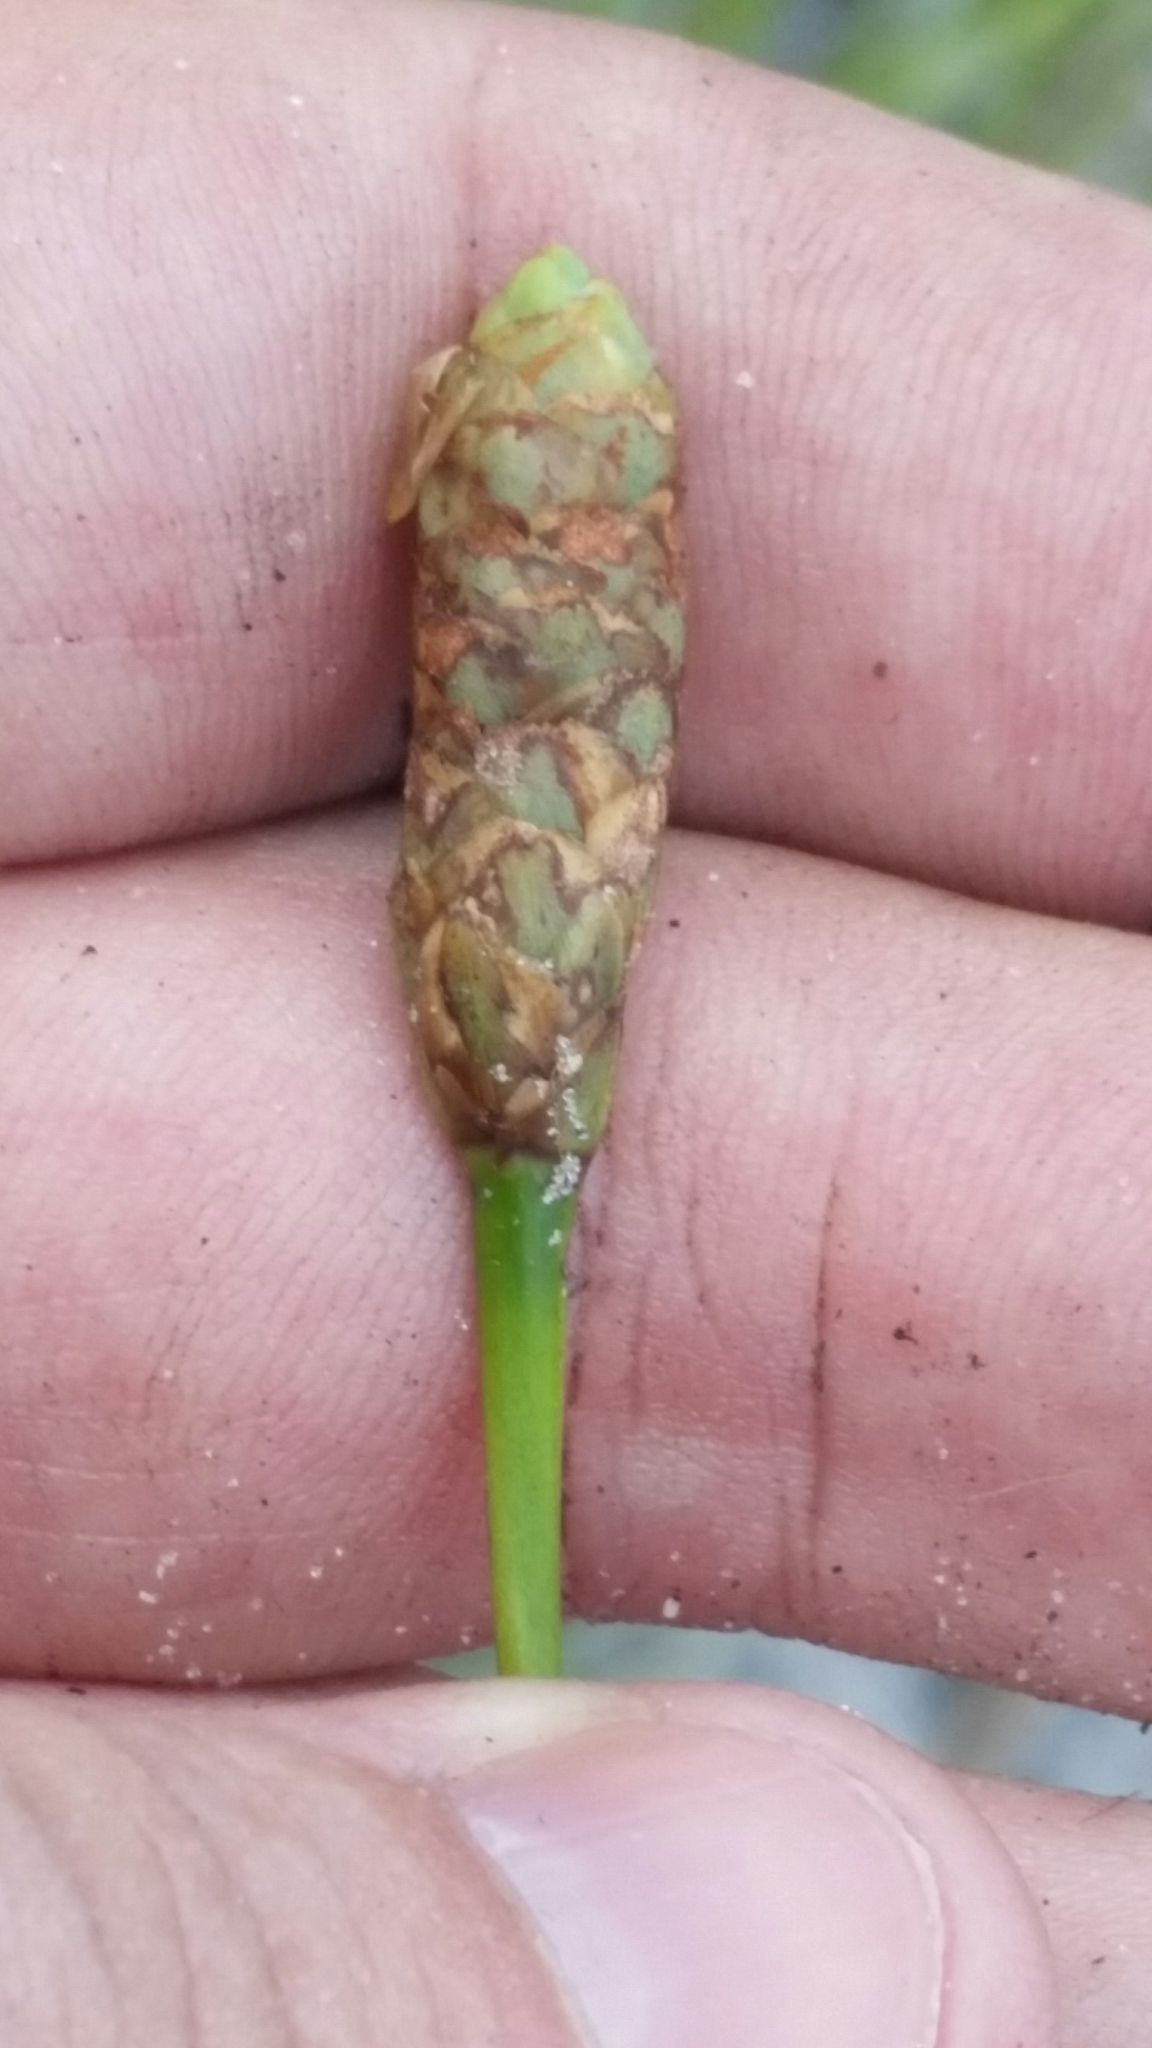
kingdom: Plantae
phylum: Tracheophyta
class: Liliopsida
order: Poales
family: Xyridaceae
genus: Xyris
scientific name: Xyris caroliniana
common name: Carolina yellow-eyed-grass
